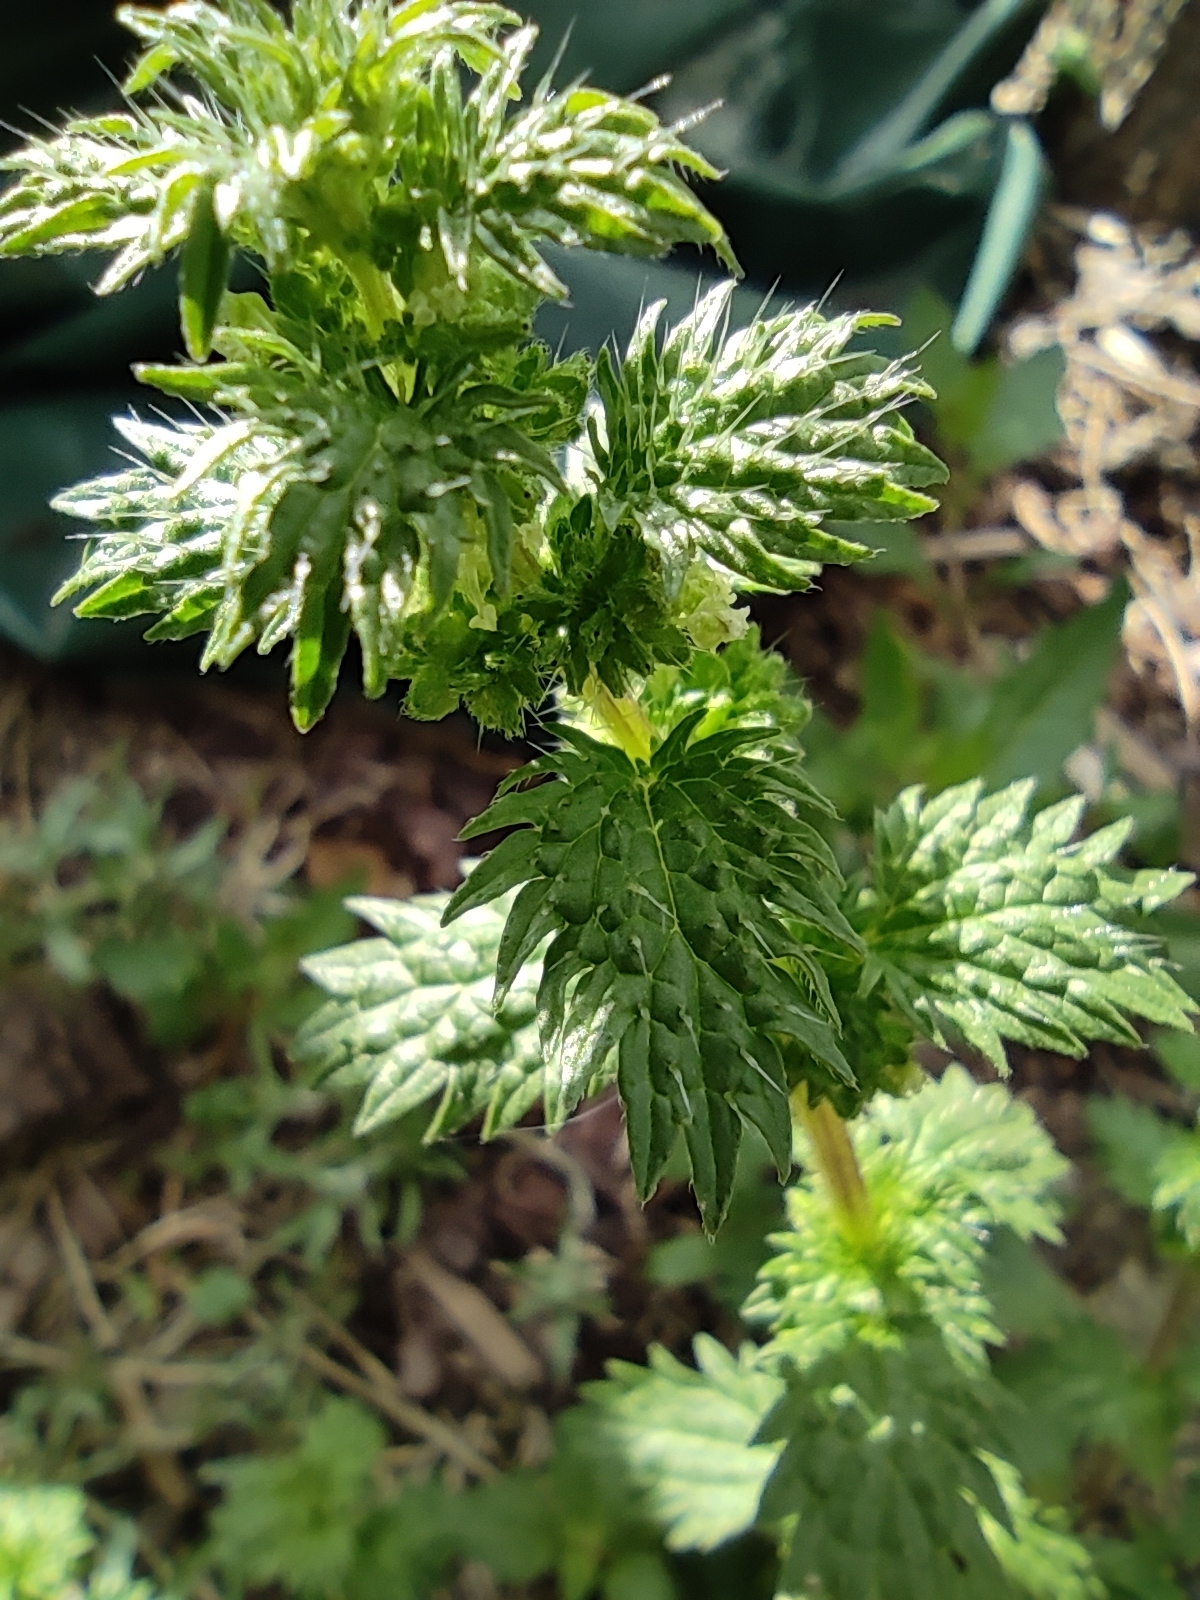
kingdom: Plantae
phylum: Tracheophyta
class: Magnoliopsida
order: Rosales
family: Urticaceae
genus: Urtica
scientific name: Urtica urens
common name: Dwarf nettle
